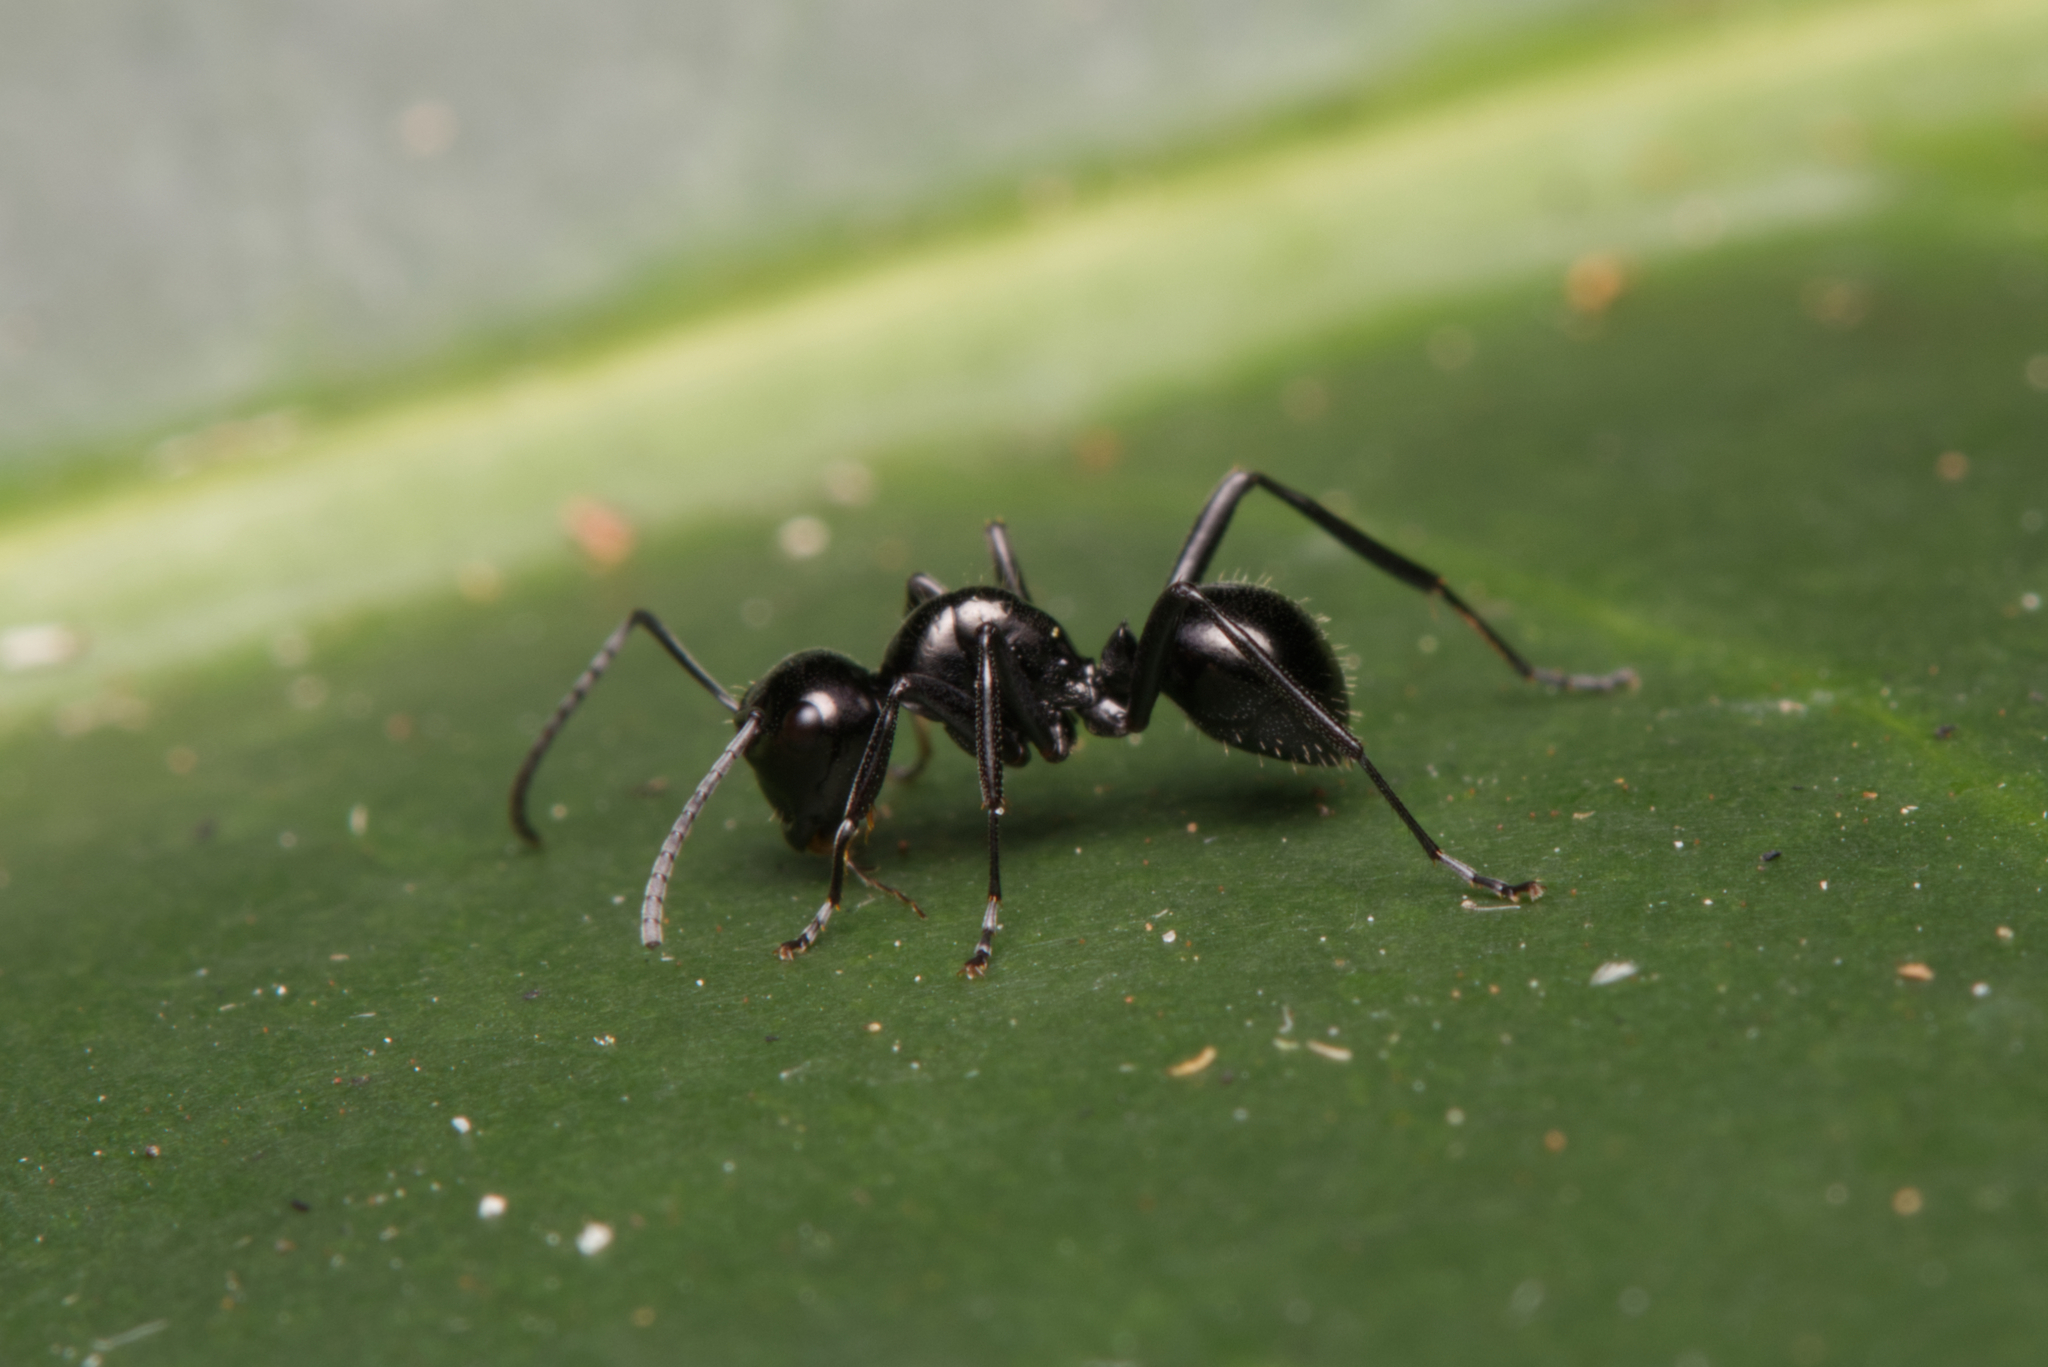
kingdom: Animalia
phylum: Arthropoda
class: Insecta
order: Hymenoptera
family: Formicidae
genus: Polyrhachis
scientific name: Polyrhachis pilosa
